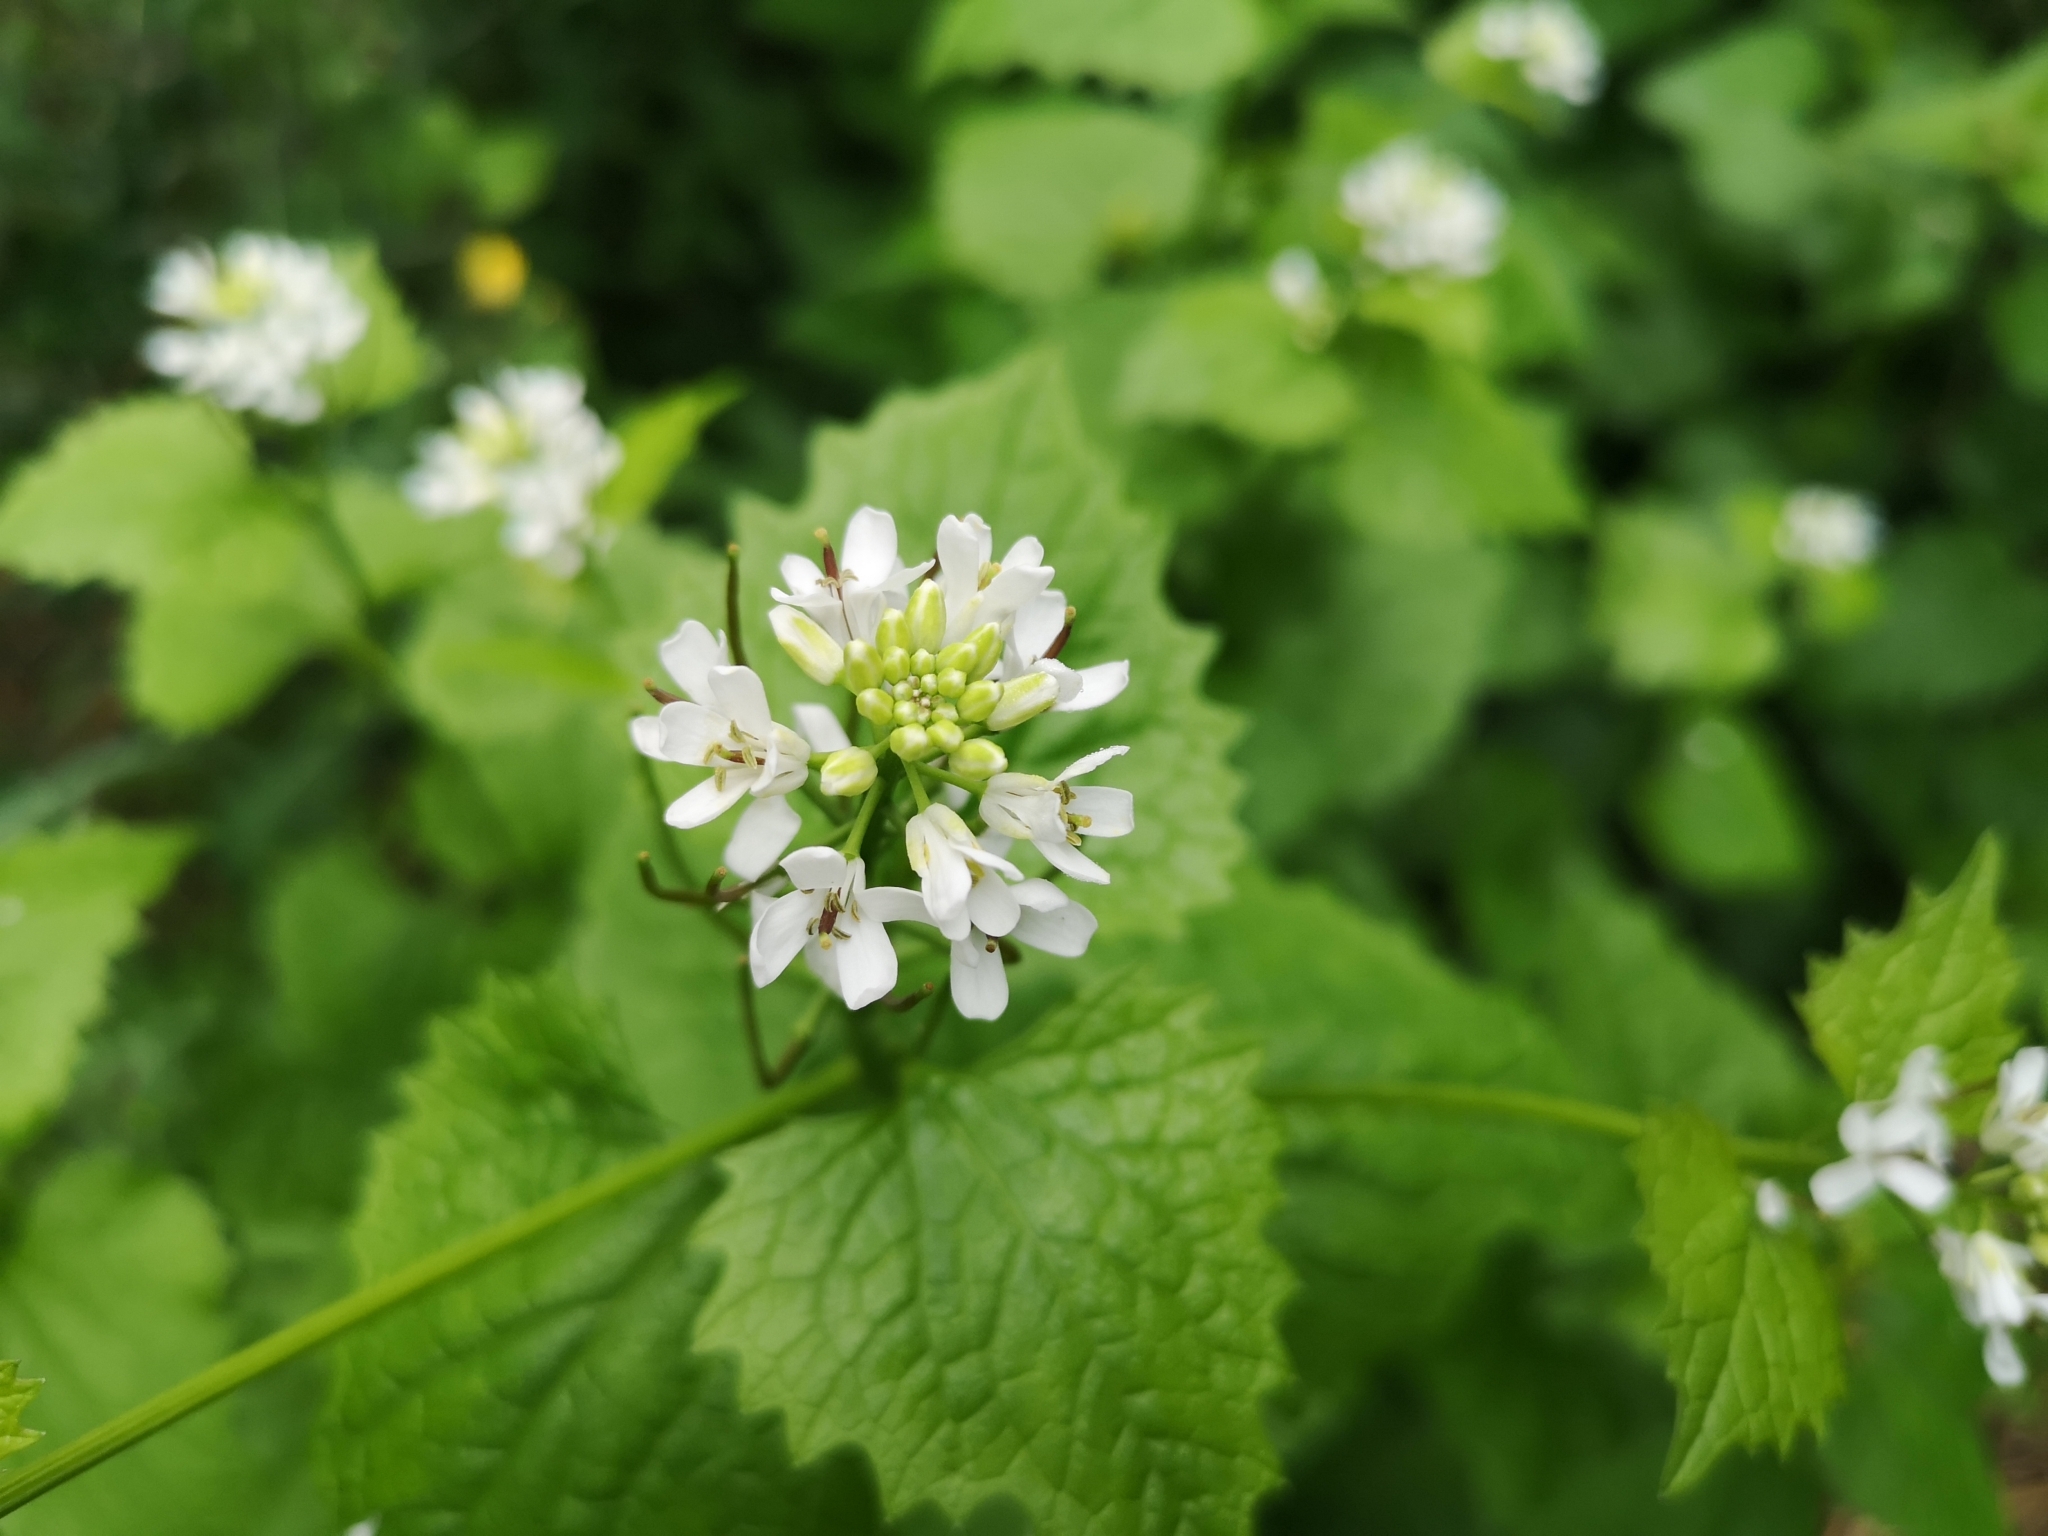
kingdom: Plantae
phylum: Tracheophyta
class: Magnoliopsida
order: Brassicales
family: Brassicaceae
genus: Alliaria
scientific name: Alliaria petiolata
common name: Garlic mustard
